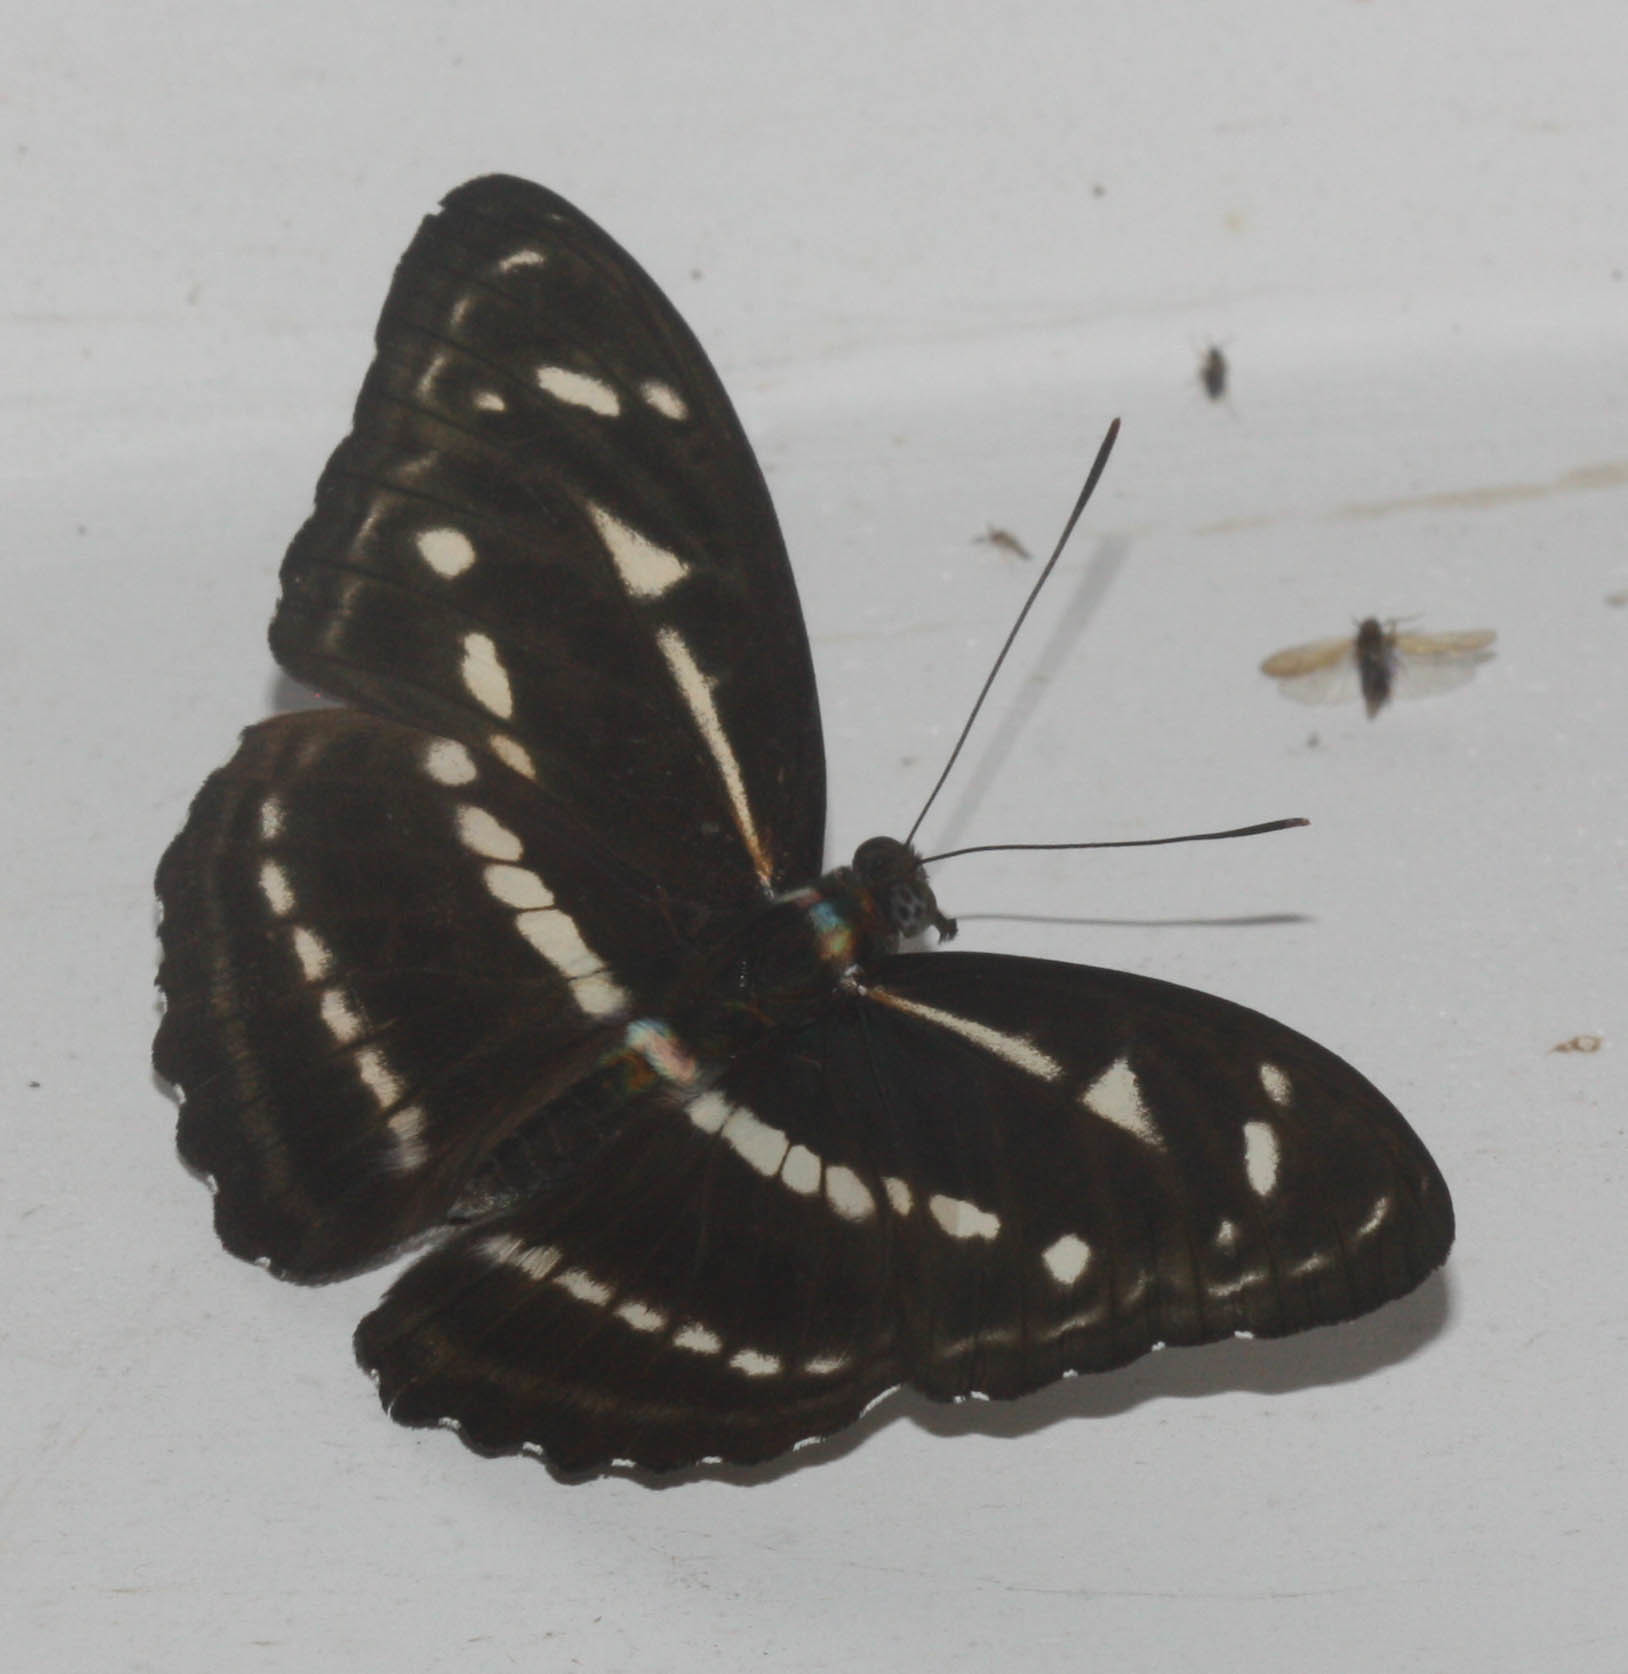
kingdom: Animalia
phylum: Arthropoda
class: Insecta
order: Lepidoptera
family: Nymphalidae
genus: Parathyma
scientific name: Parathyma kanwa
